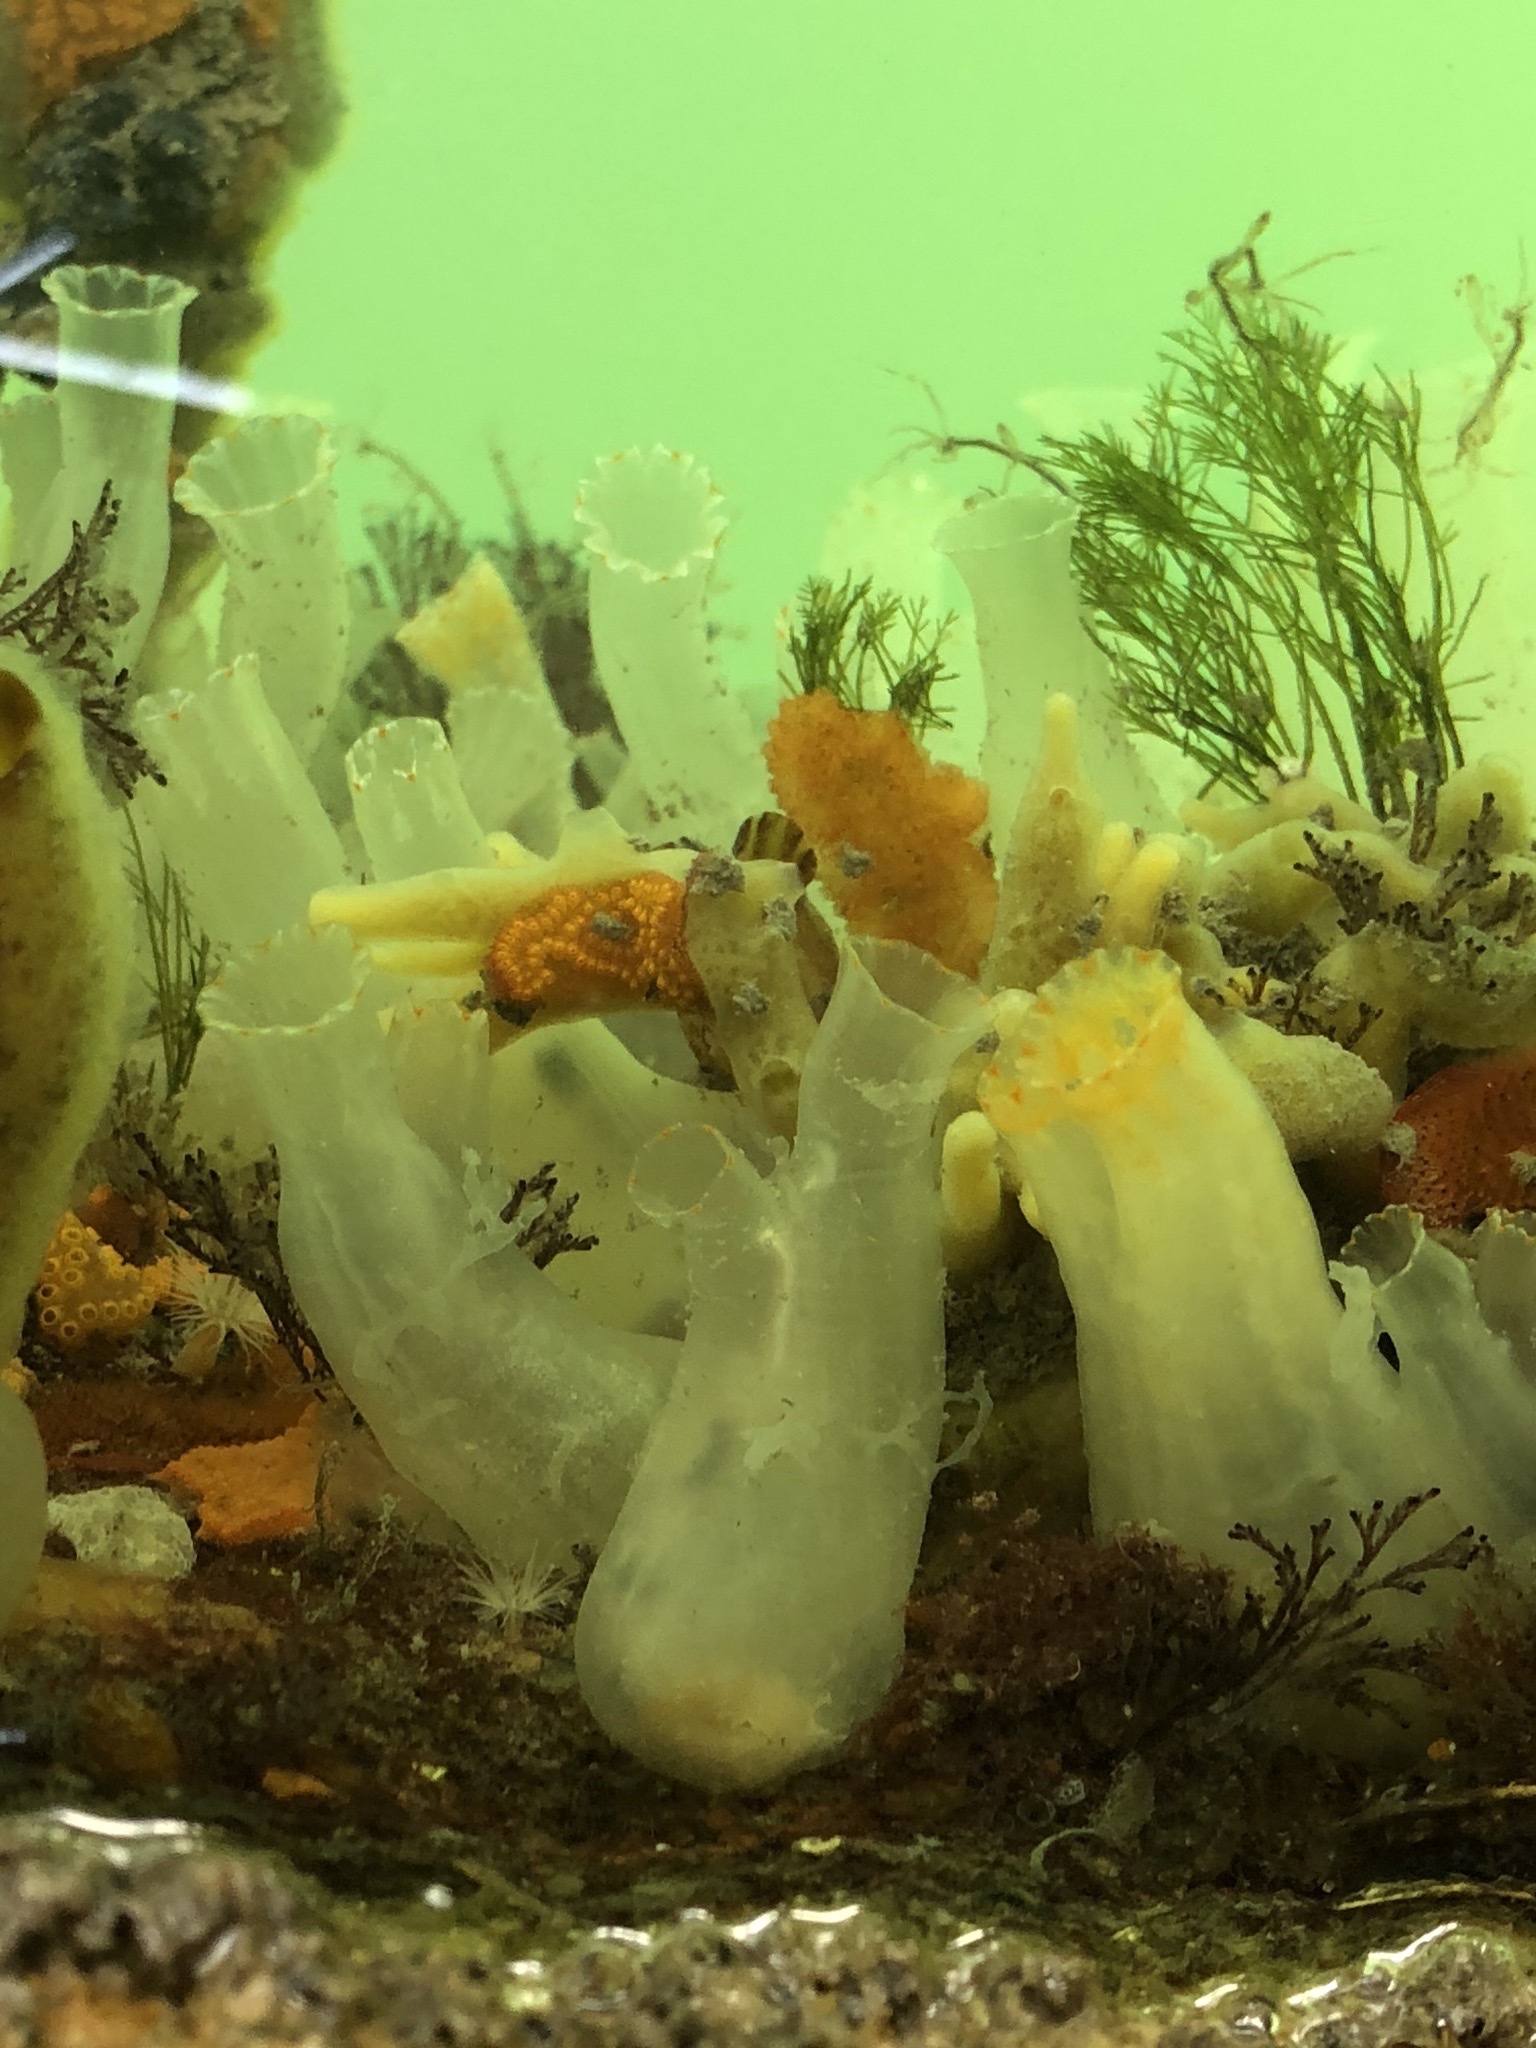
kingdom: Animalia
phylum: Chordata
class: Ascidiacea
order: Phlebobranchia
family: Cionidae
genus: Ciona
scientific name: Ciona savignyi
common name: Tunicate
